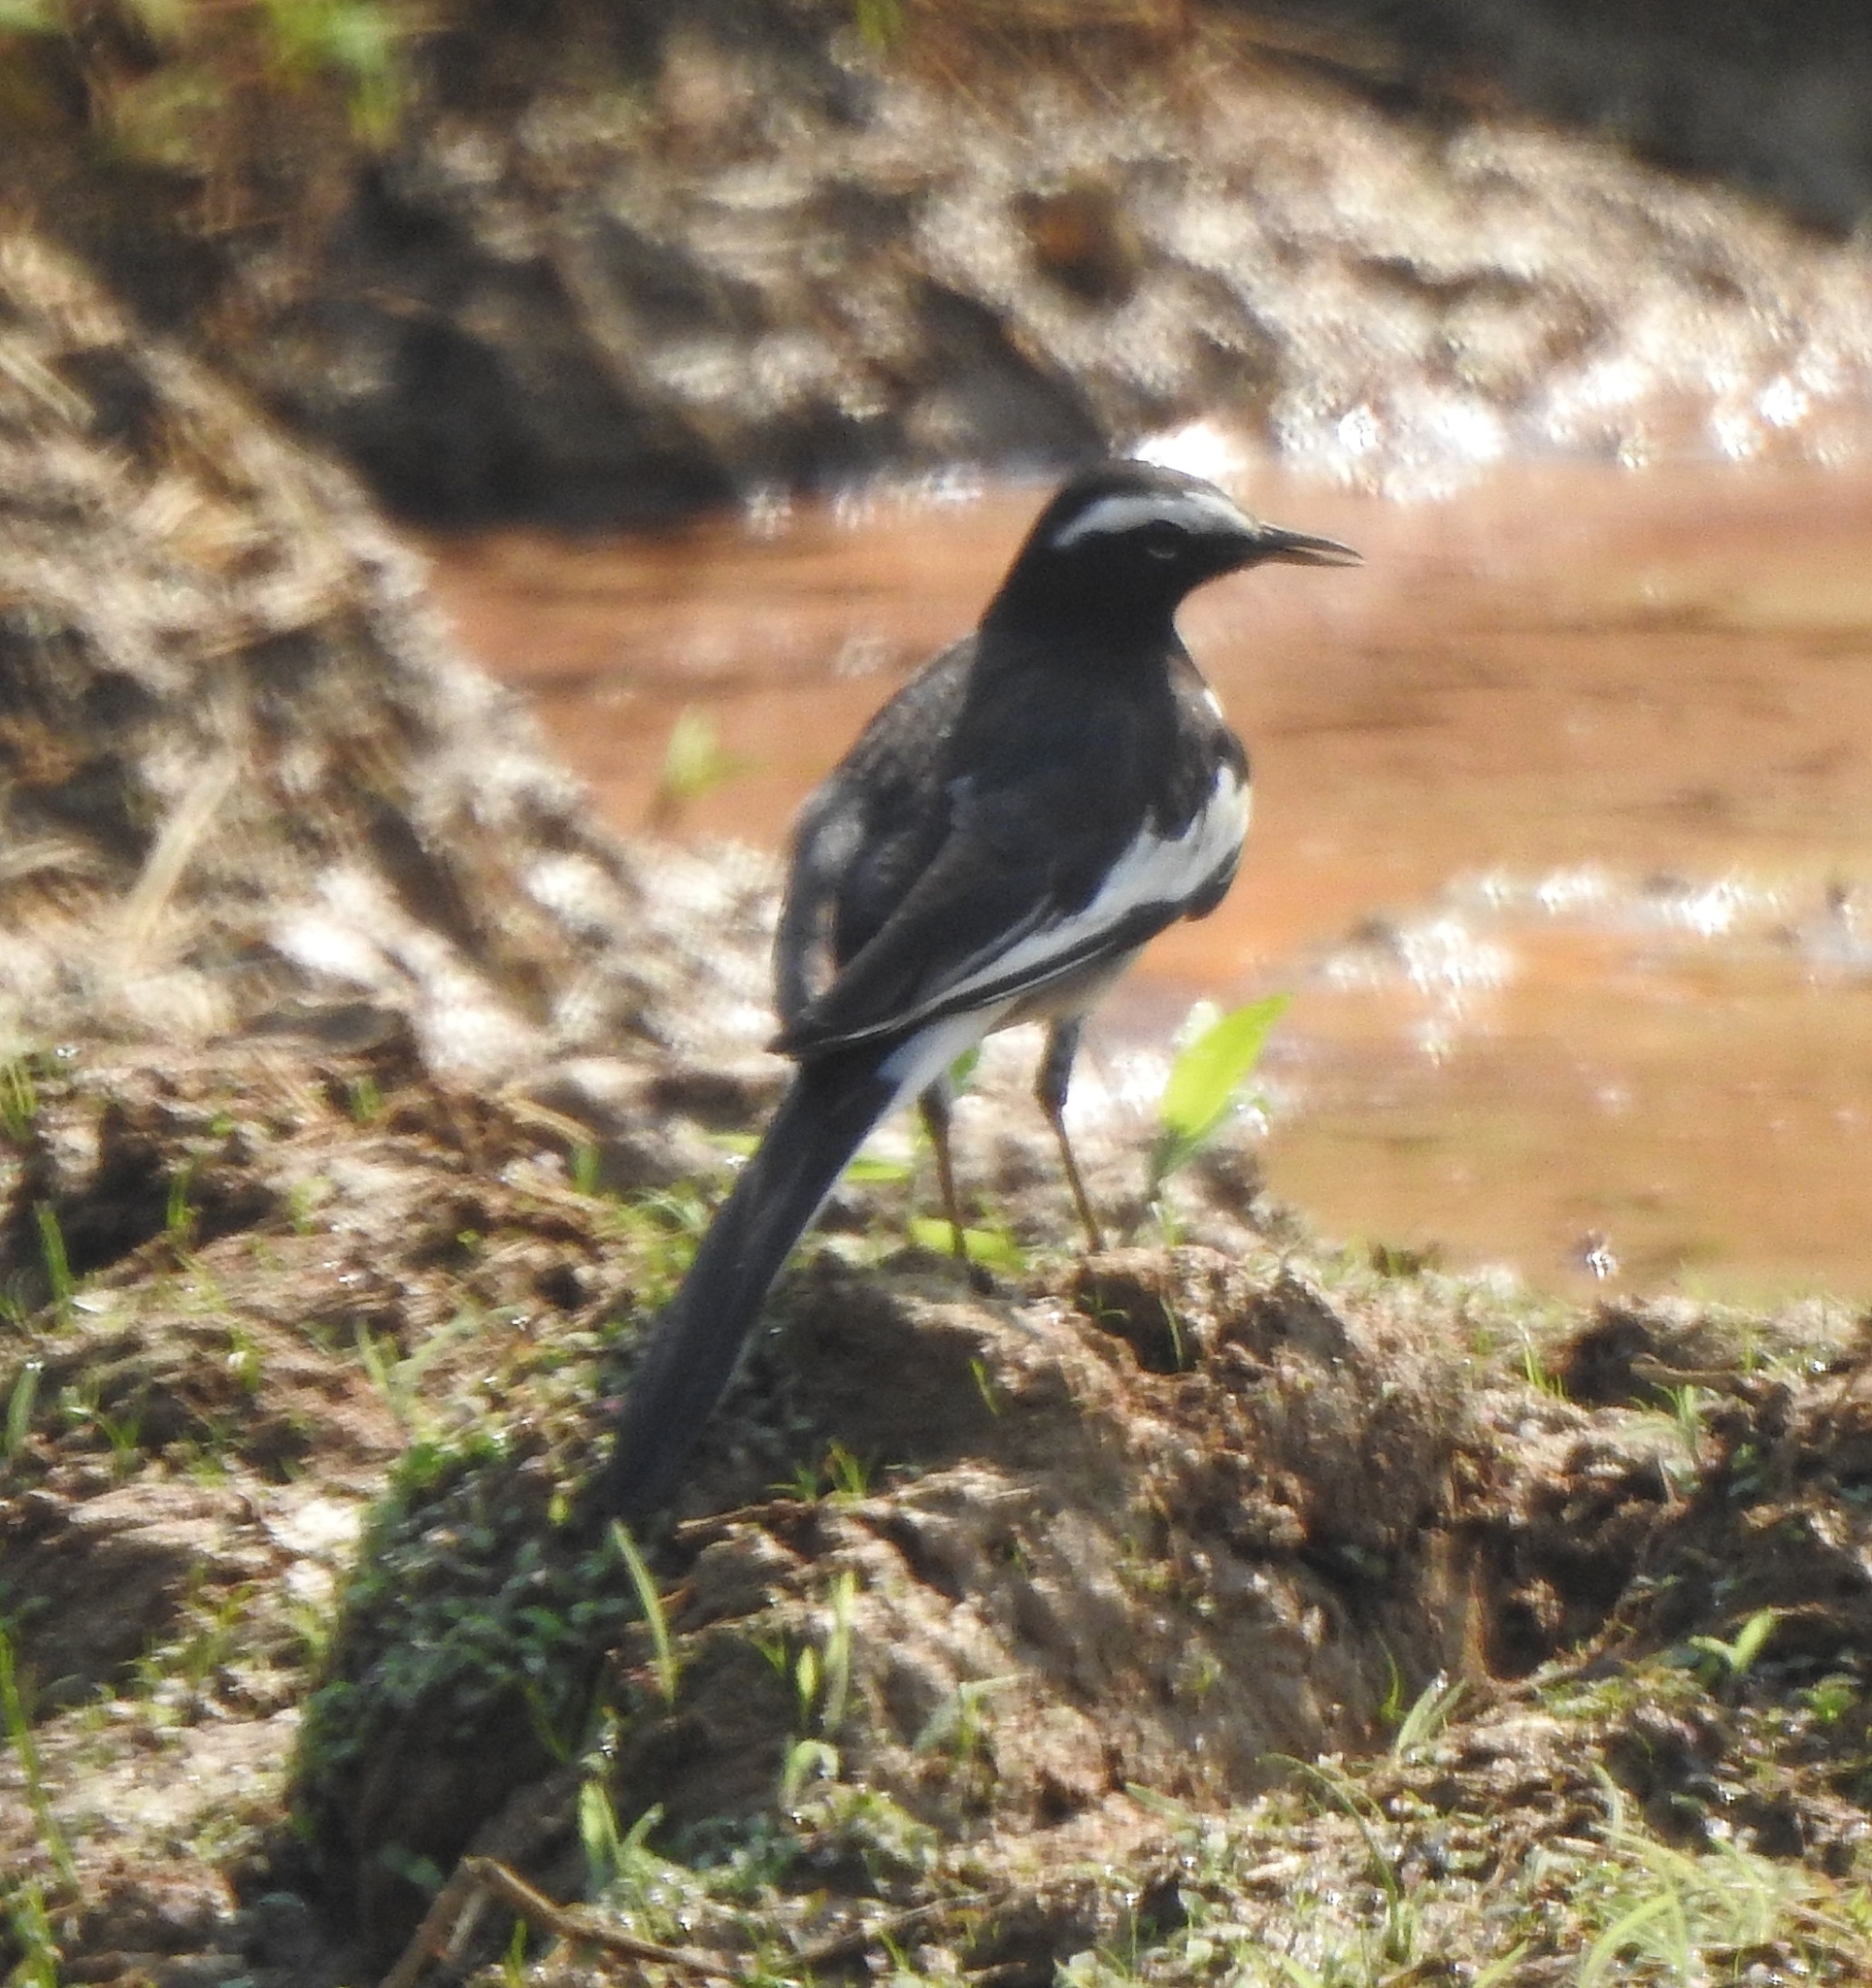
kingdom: Animalia
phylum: Chordata
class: Aves
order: Passeriformes
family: Motacillidae
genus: Motacilla
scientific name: Motacilla maderaspatensis
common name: White-browed wagtail
